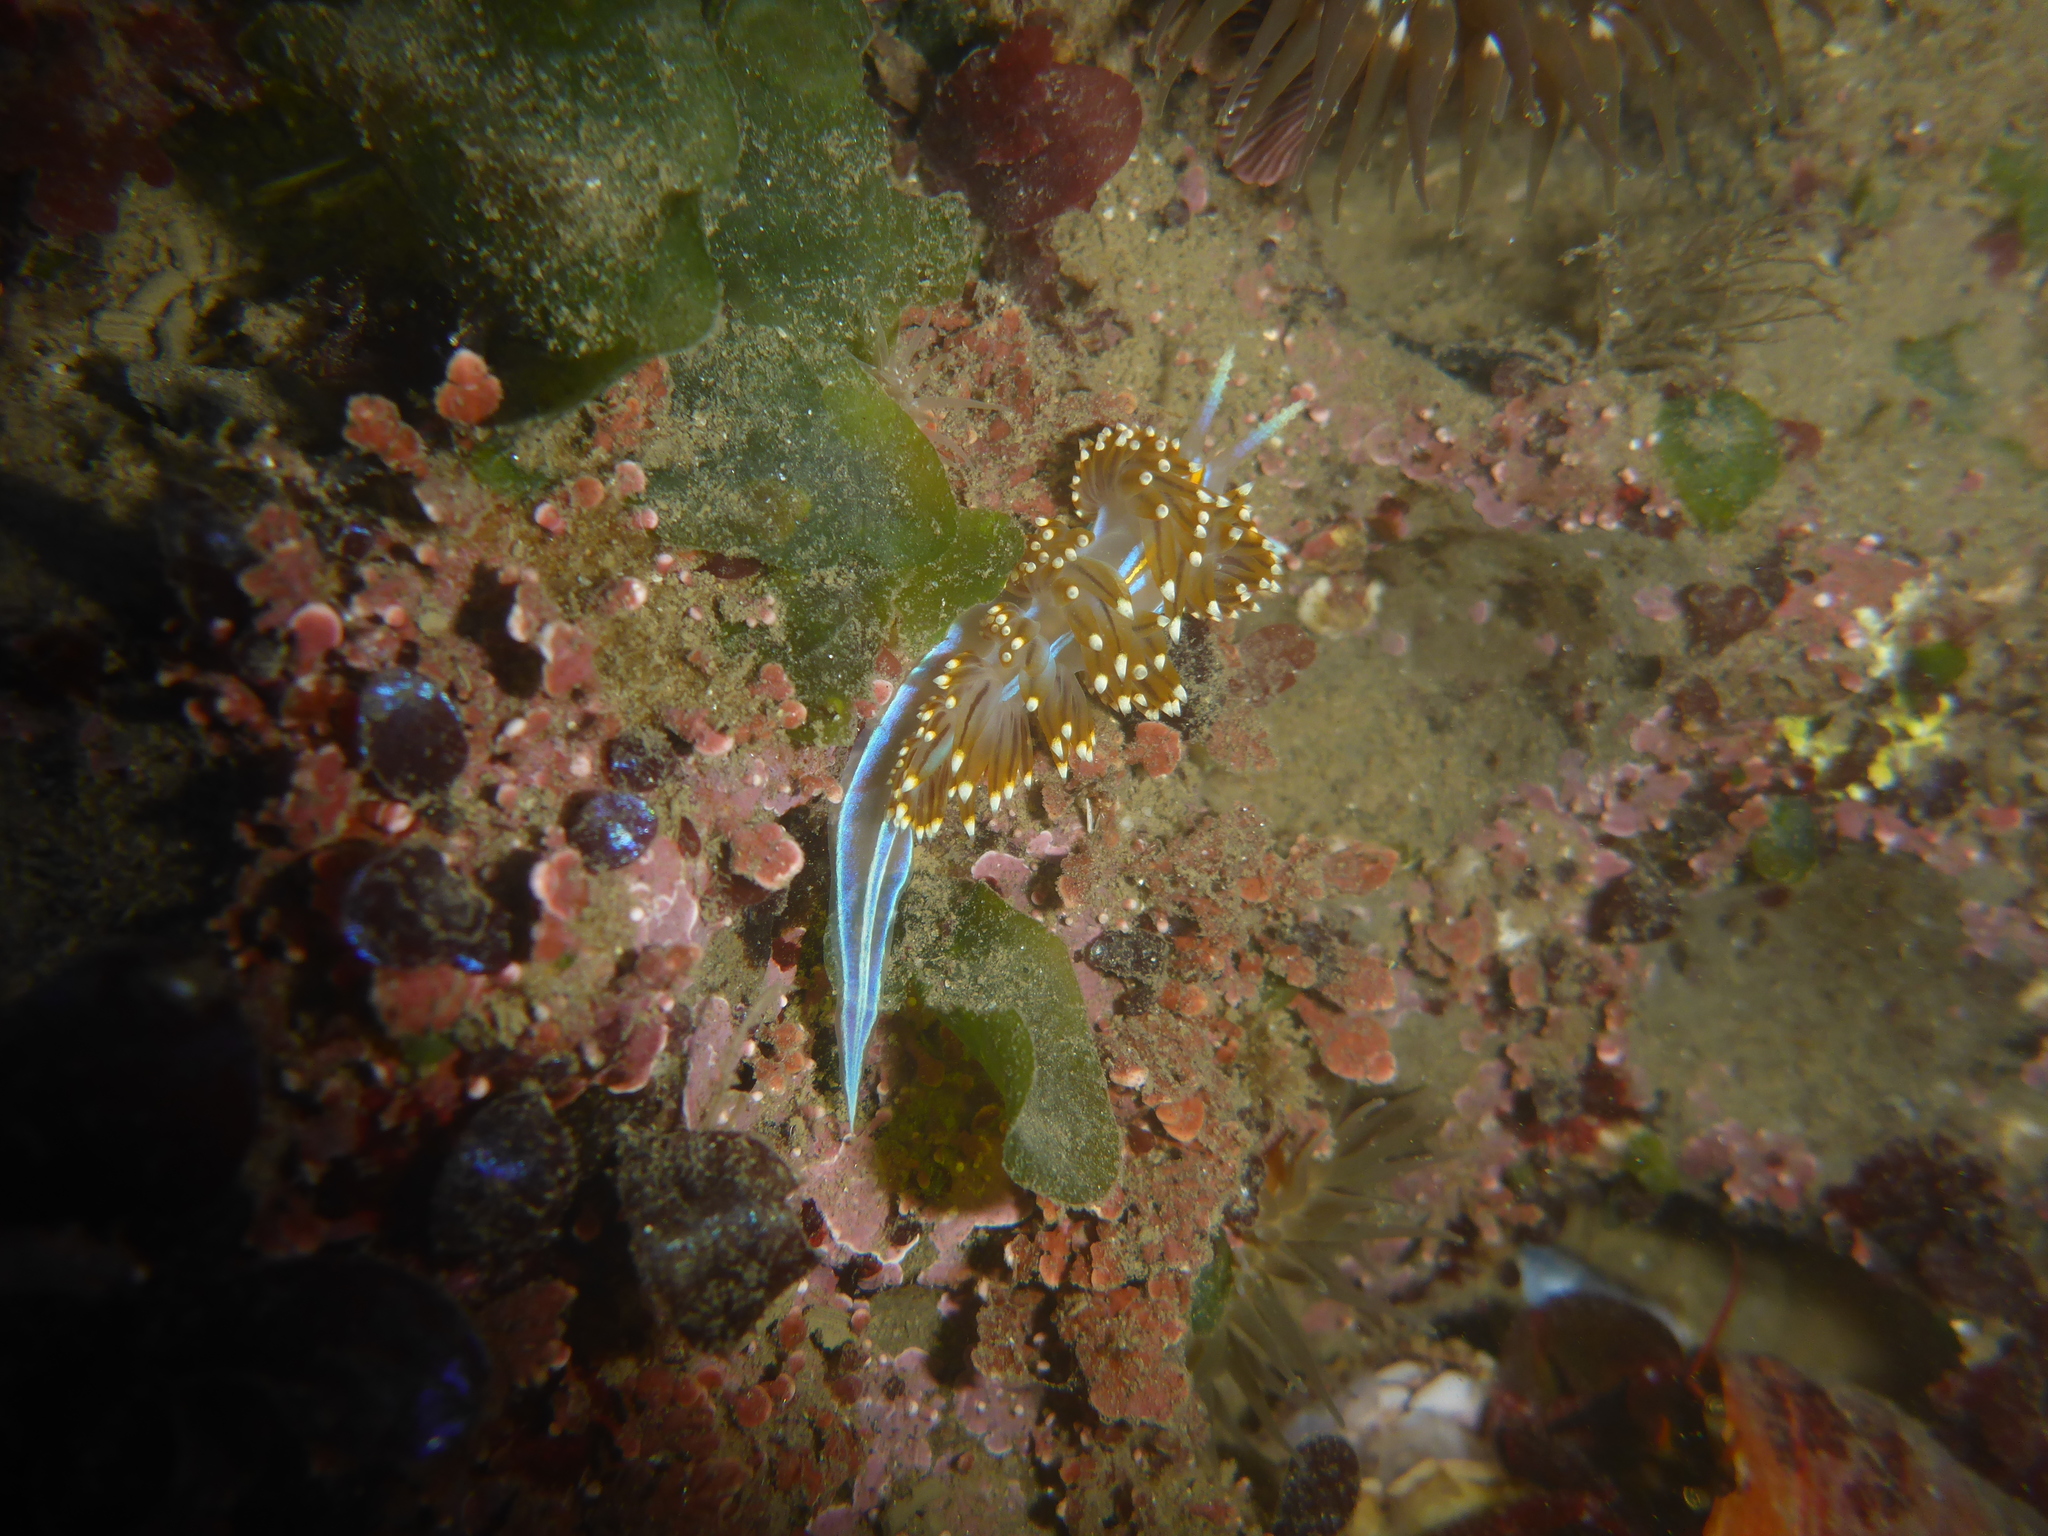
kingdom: Animalia
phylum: Mollusca
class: Gastropoda
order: Nudibranchia
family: Myrrhinidae
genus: Hermissenda
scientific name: Hermissenda opalescens
